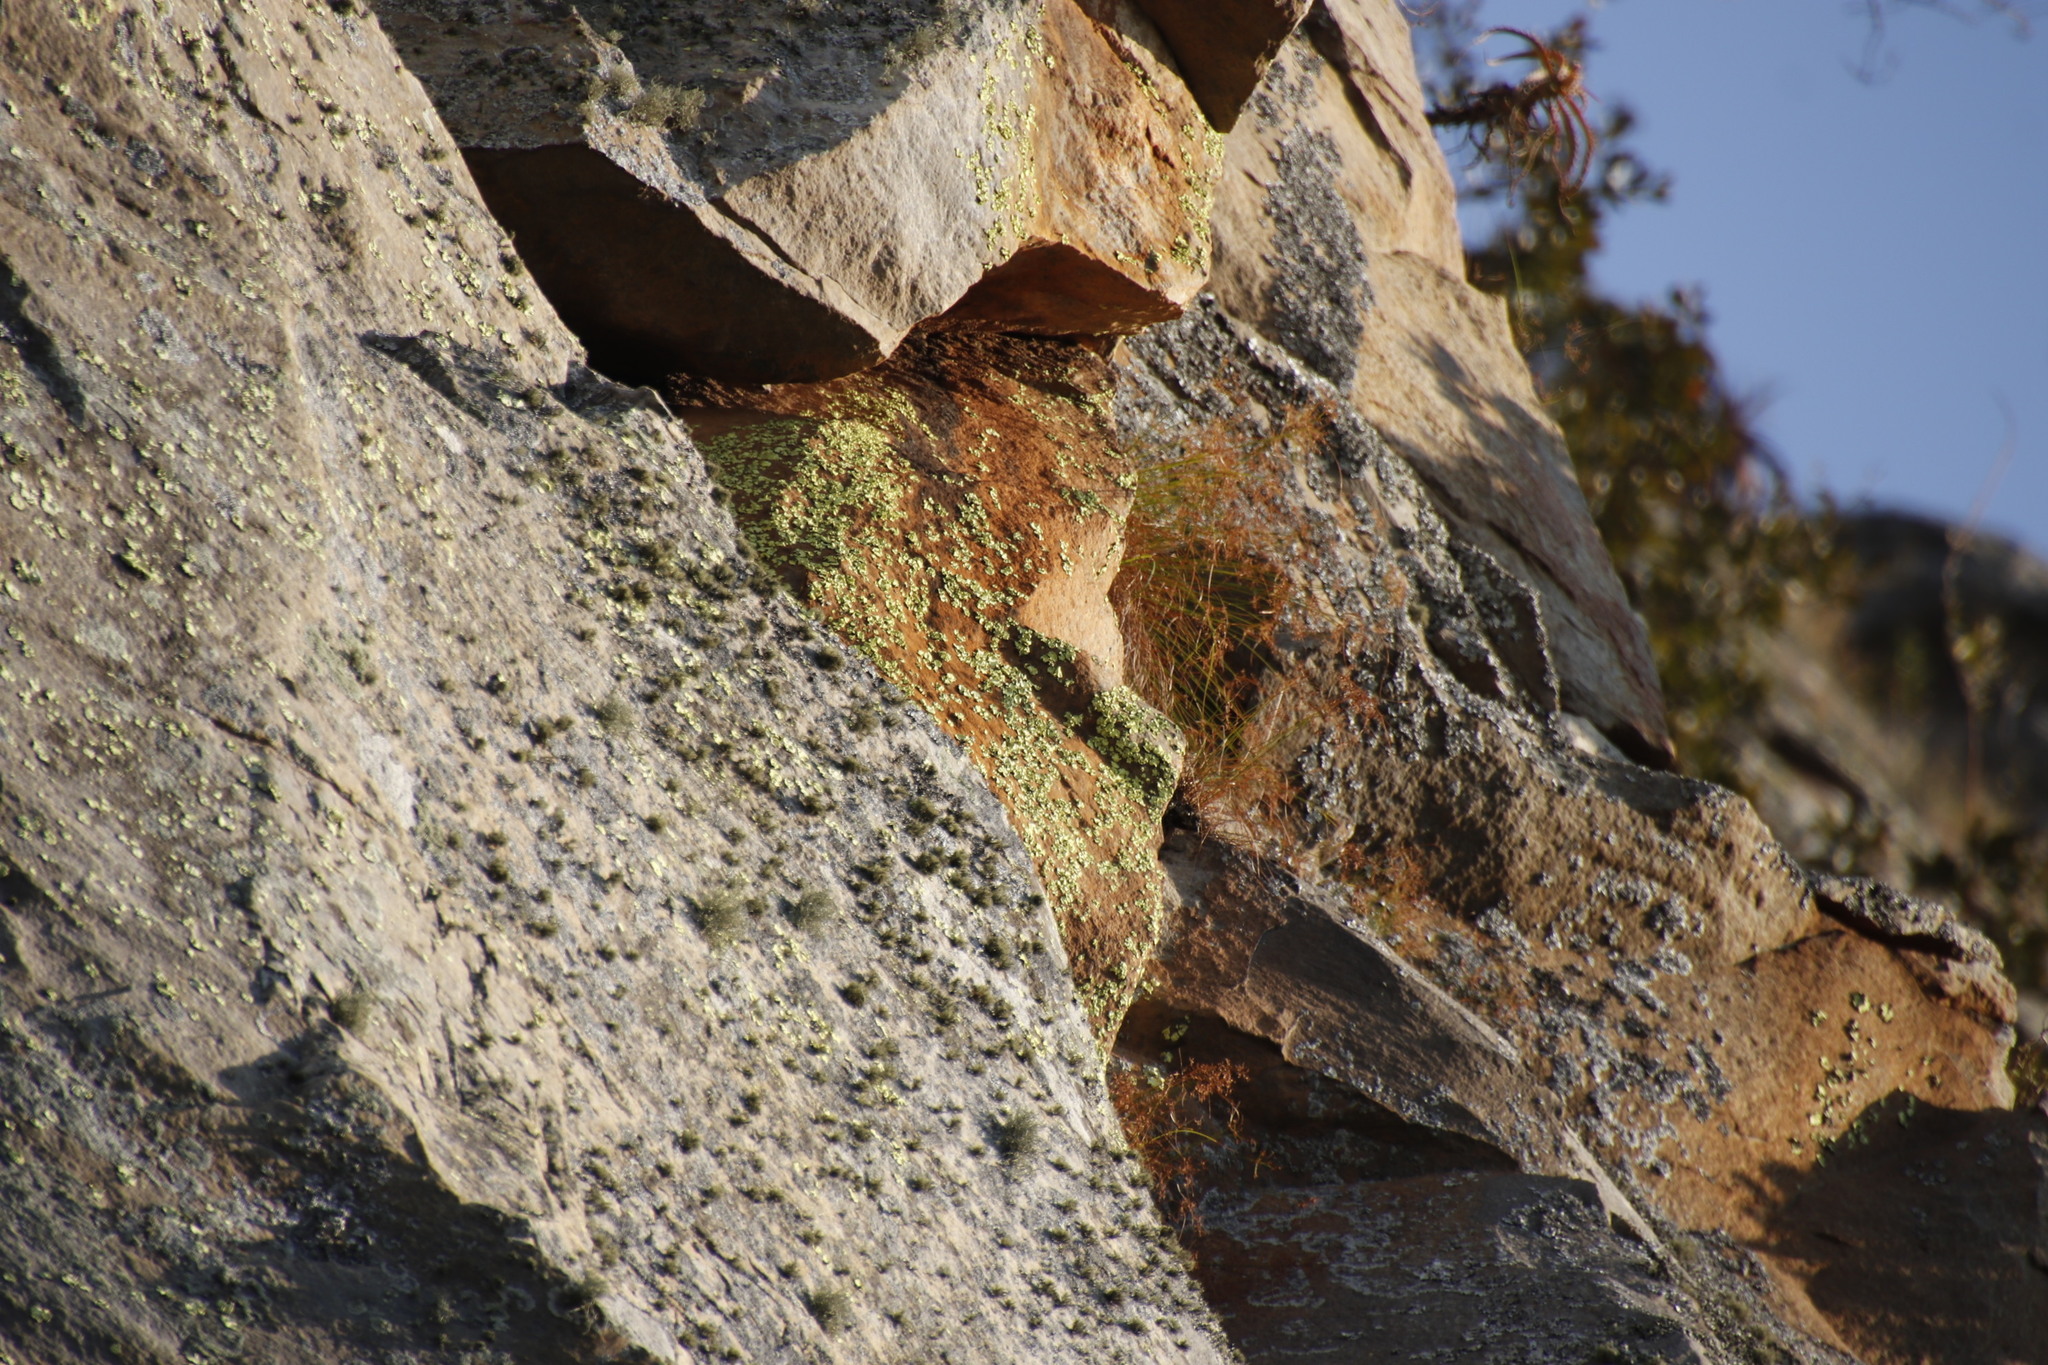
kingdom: Fungi
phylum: Ascomycota
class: Lecanoromycetes
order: Caliciales
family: Caliciaceae
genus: Dermatiscum
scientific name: Dermatiscum thunbergii
